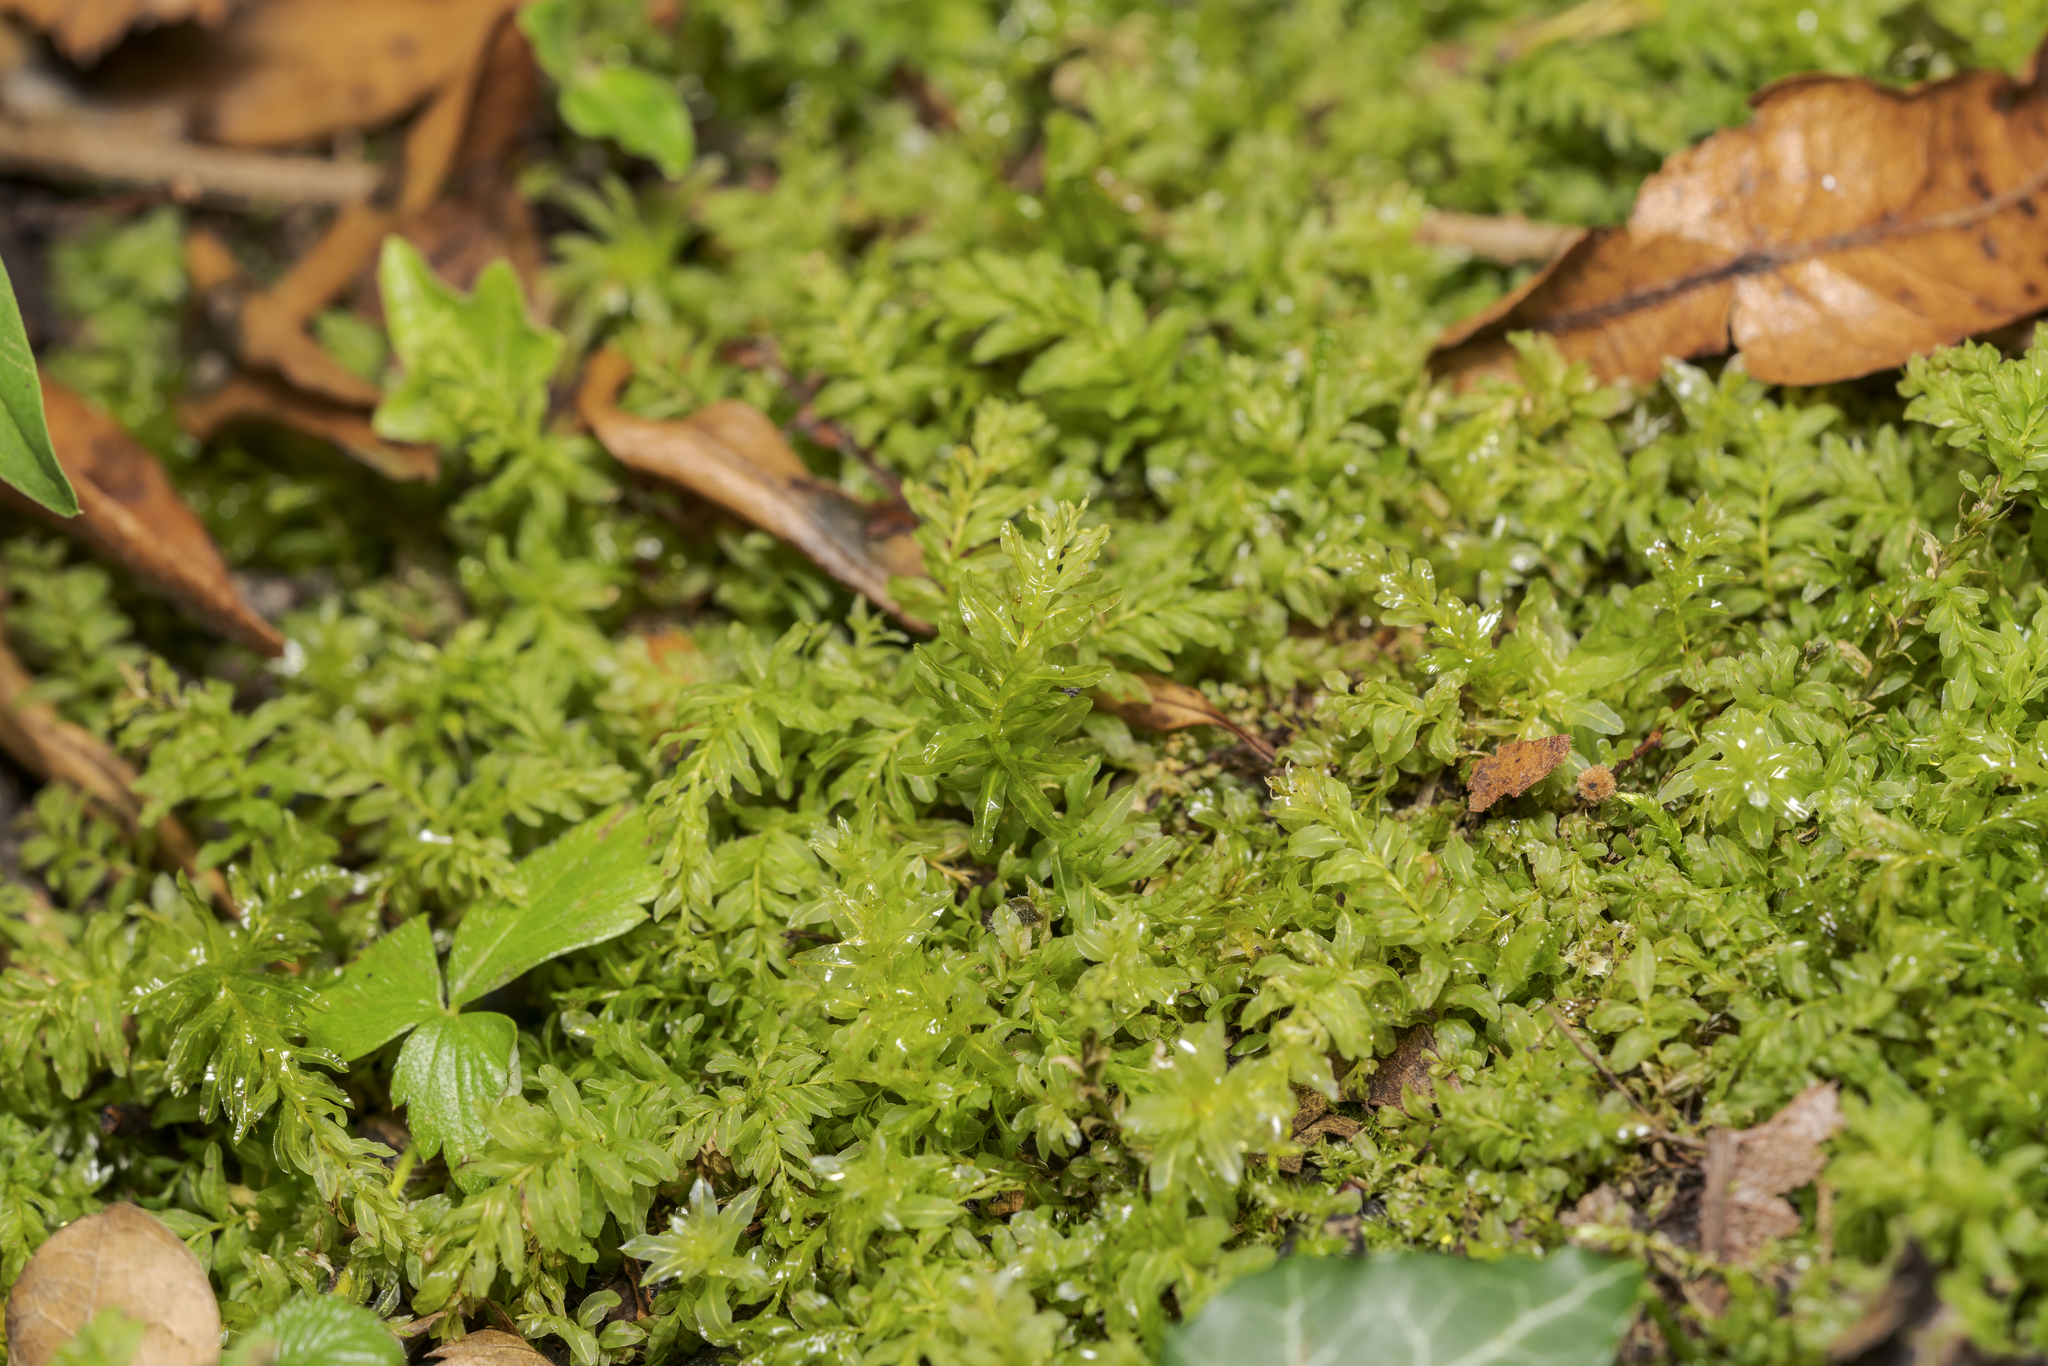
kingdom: Plantae
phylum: Bryophyta
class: Bryopsida
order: Bryales
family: Mniaceae
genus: Plagiomnium
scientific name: Plagiomnium undulatum
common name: Hart's-tongue thyme-moss
